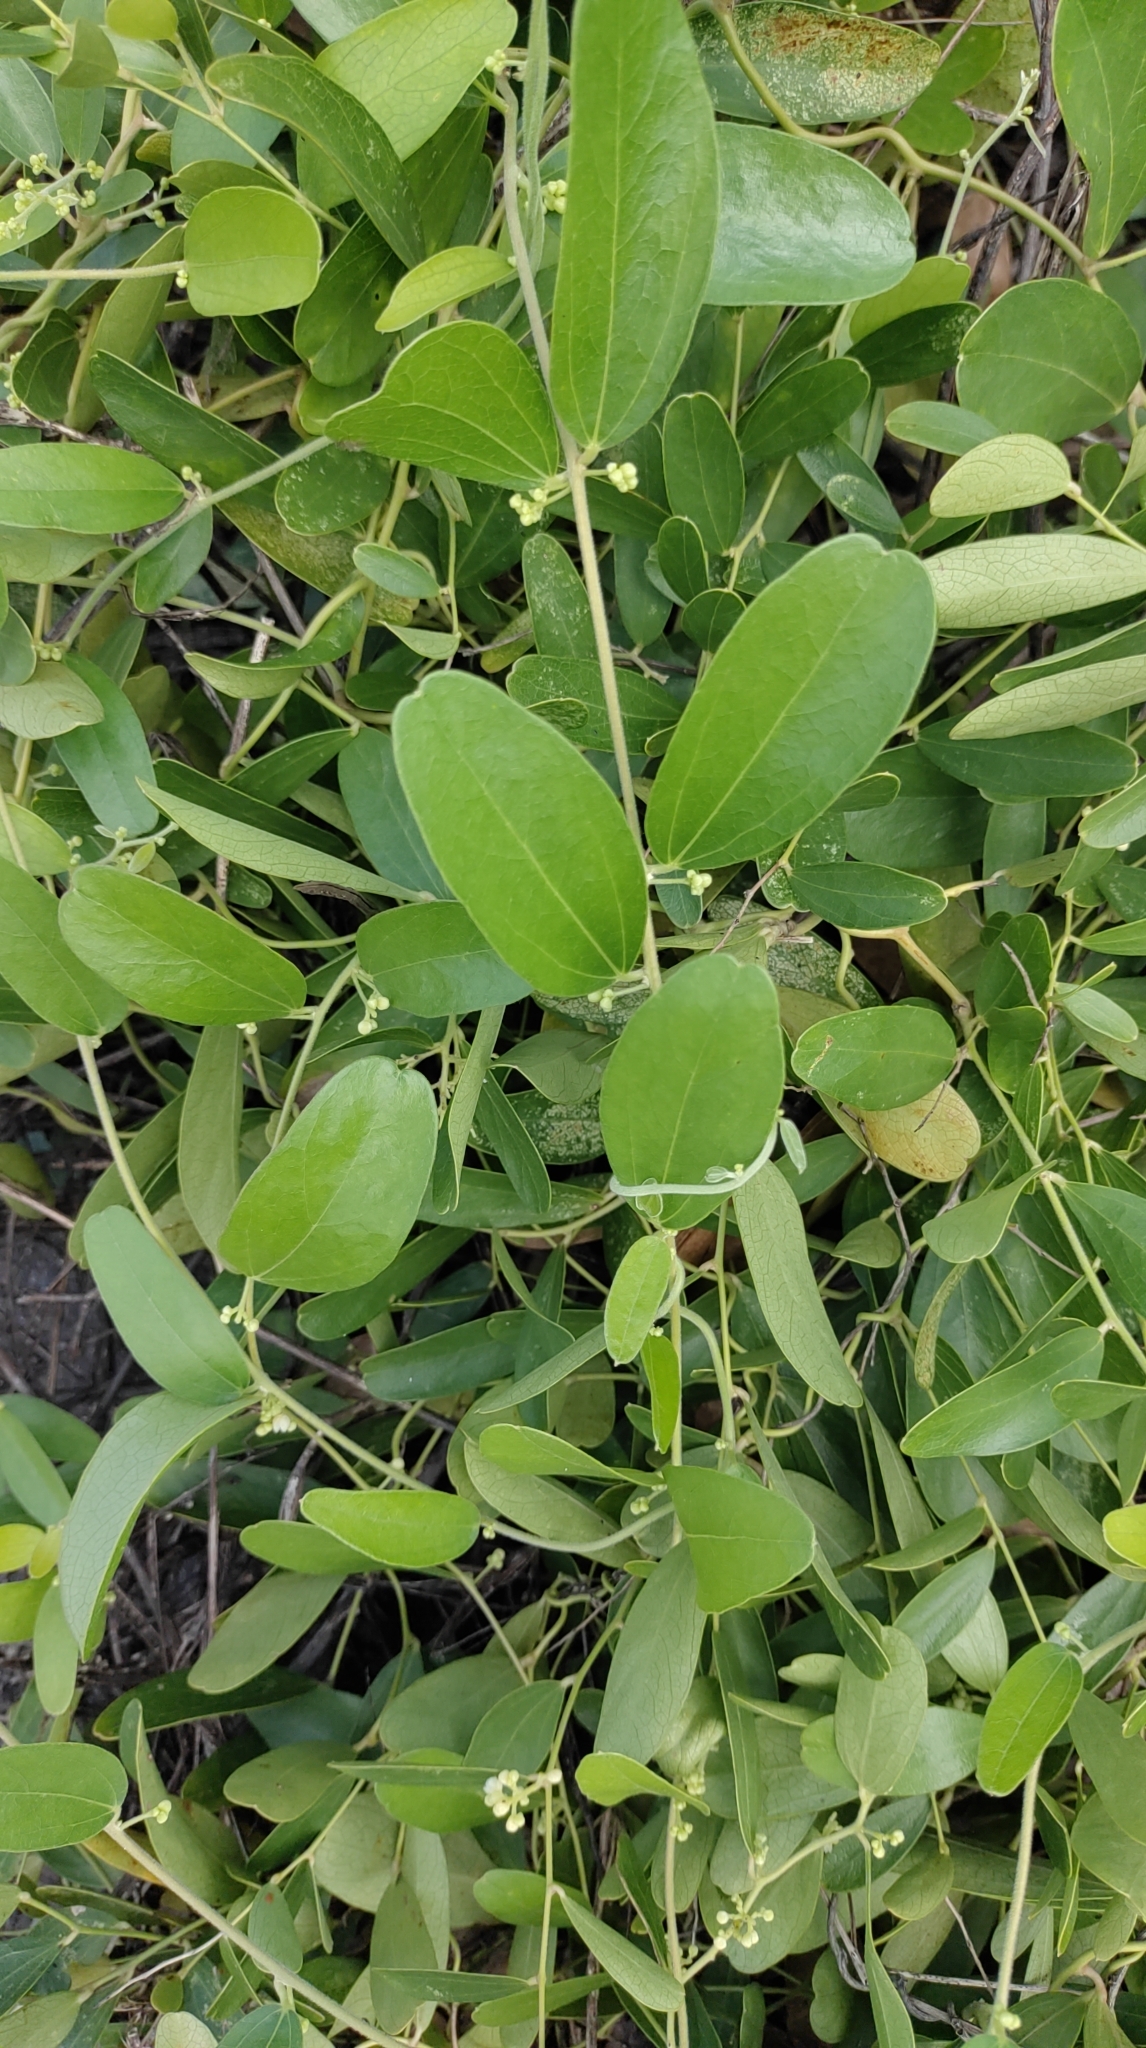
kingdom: Plantae
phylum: Tracheophyta
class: Magnoliopsida
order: Ranunculales
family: Menispermaceae
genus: Cocculus
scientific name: Cocculus orbiculatus
